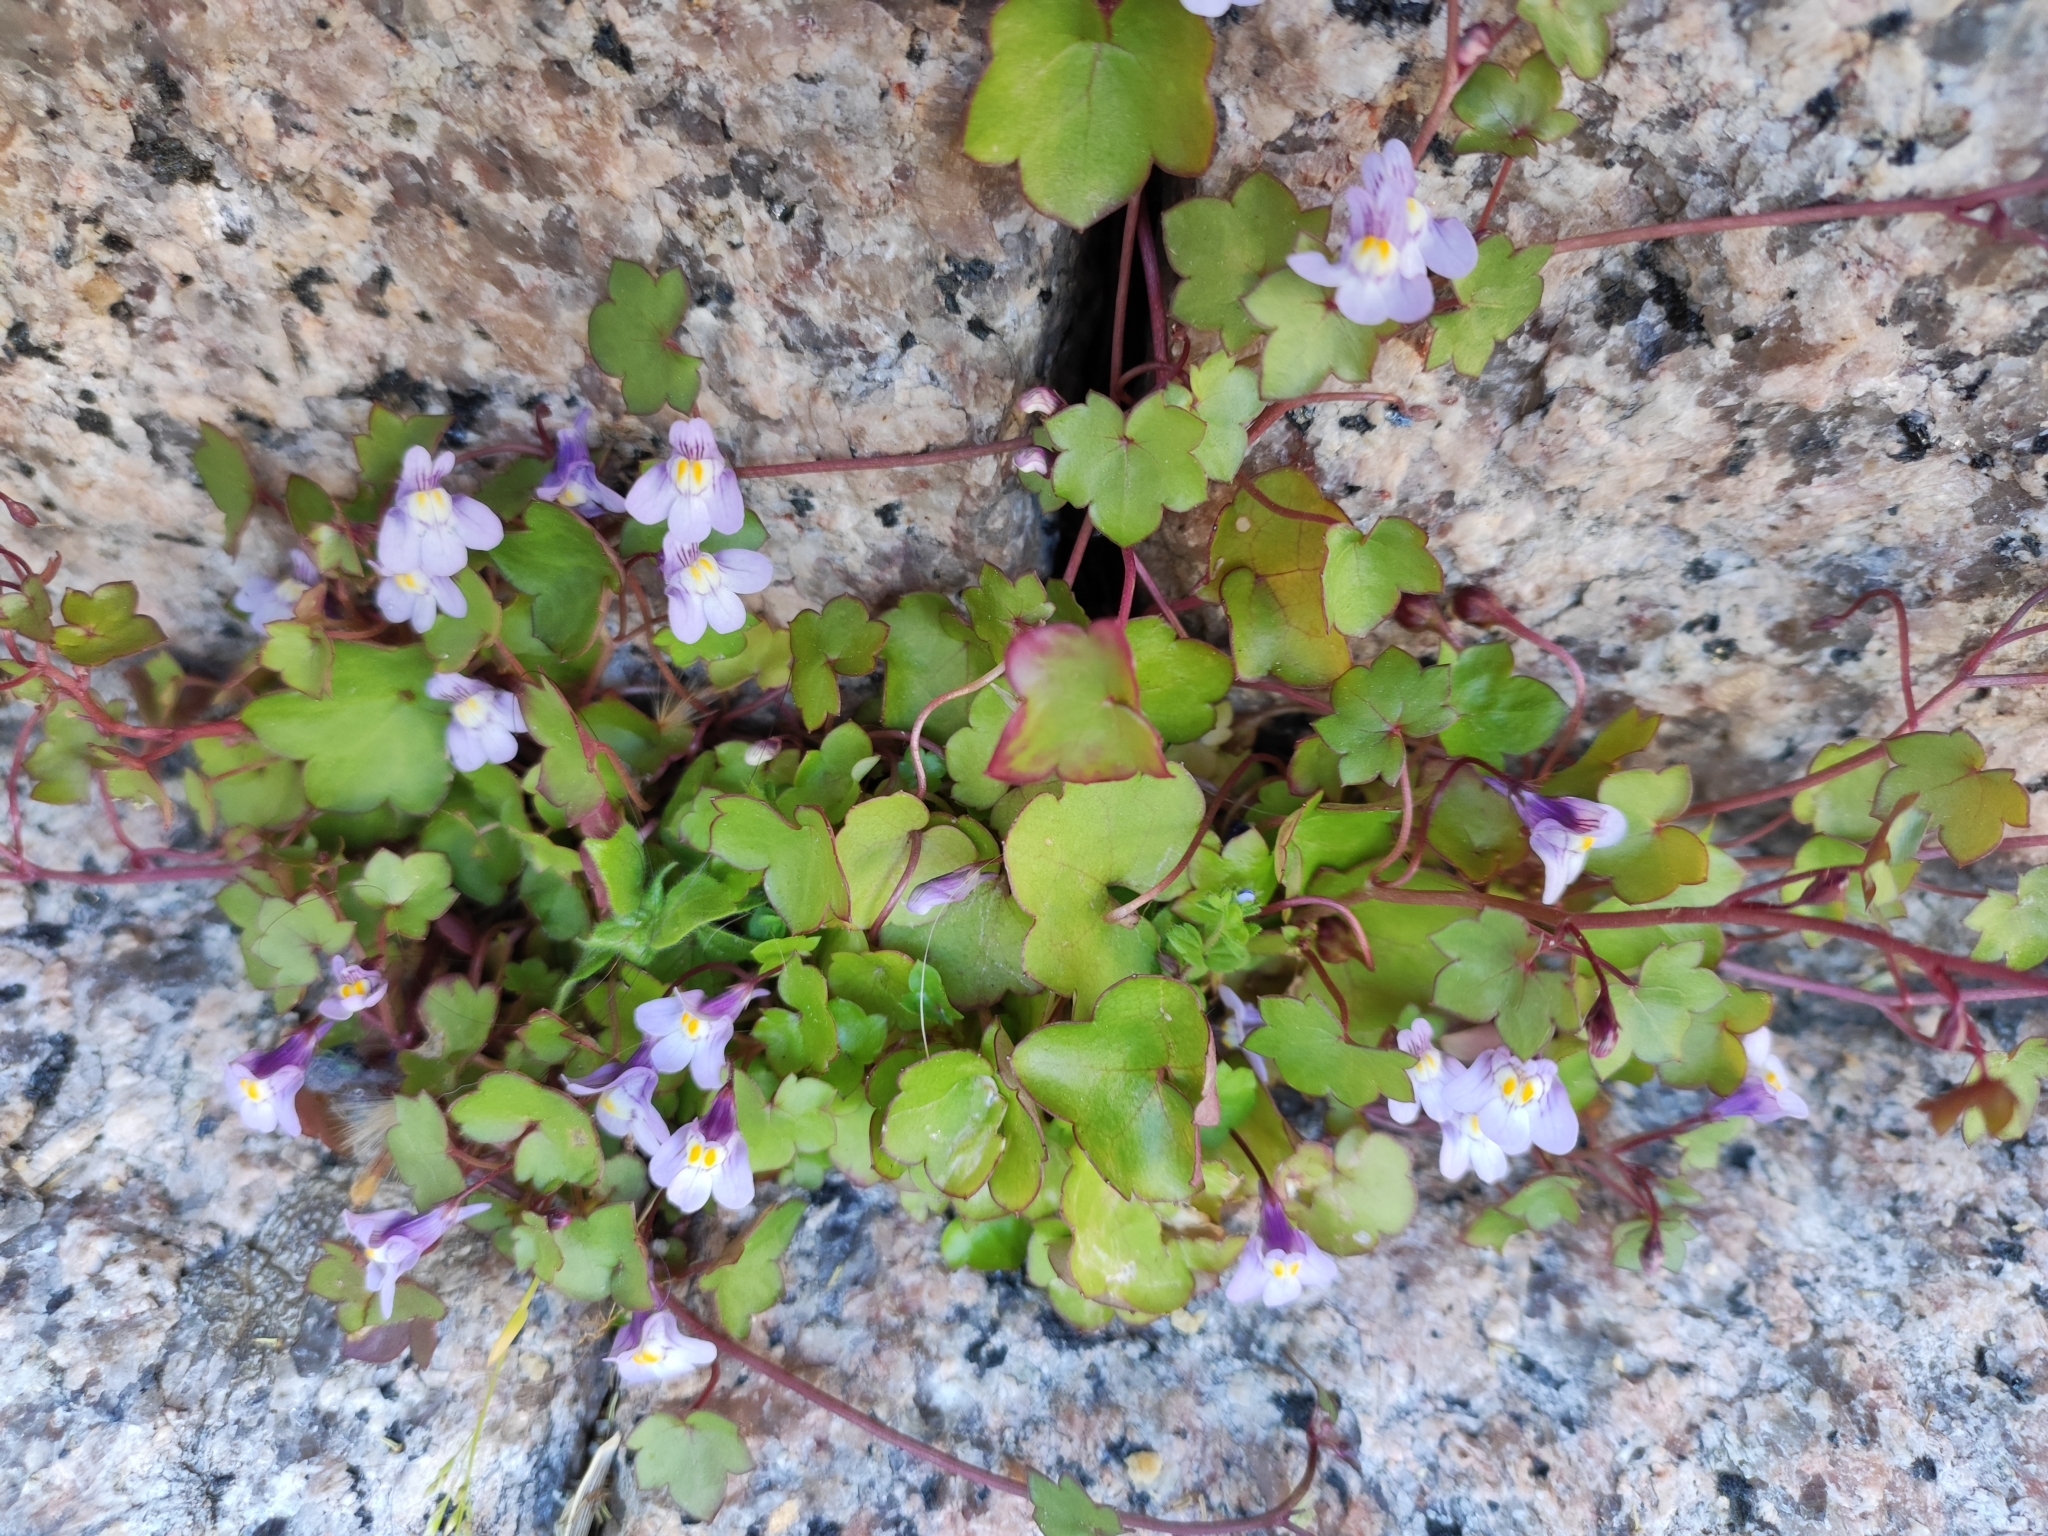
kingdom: Plantae
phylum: Tracheophyta
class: Magnoliopsida
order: Lamiales
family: Plantaginaceae
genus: Cymbalaria
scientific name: Cymbalaria muralis
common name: Ivy-leaved toadflax
